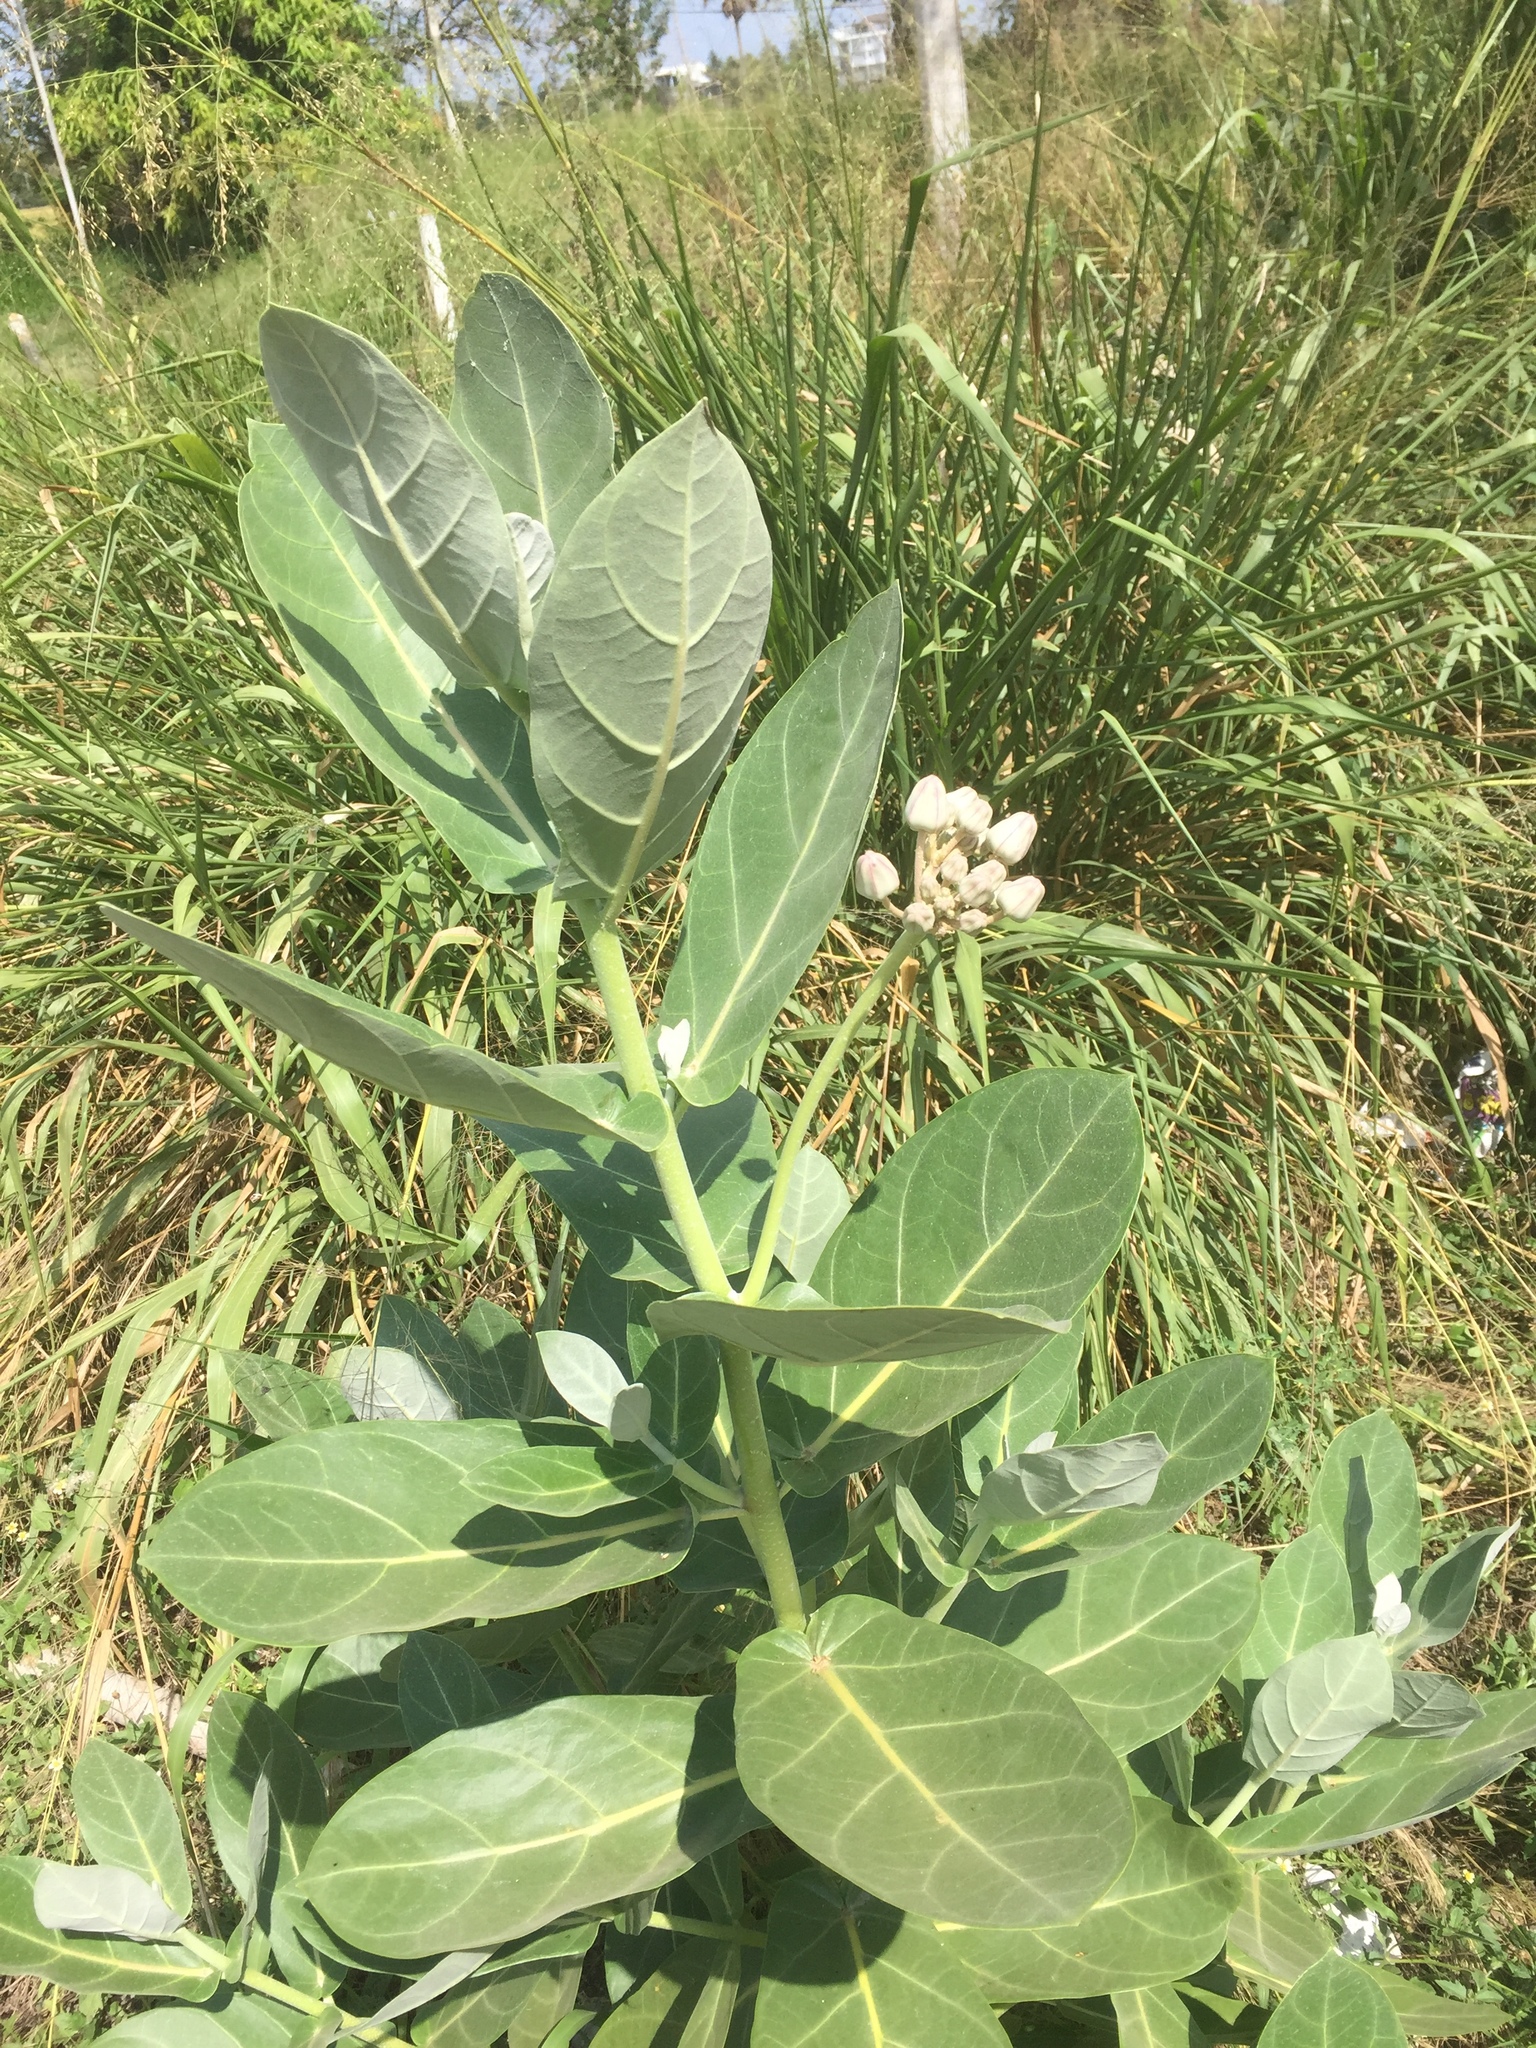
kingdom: Plantae
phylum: Tracheophyta
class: Magnoliopsida
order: Gentianales
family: Apocynaceae
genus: Calotropis
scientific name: Calotropis gigantea
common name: Crown flower
